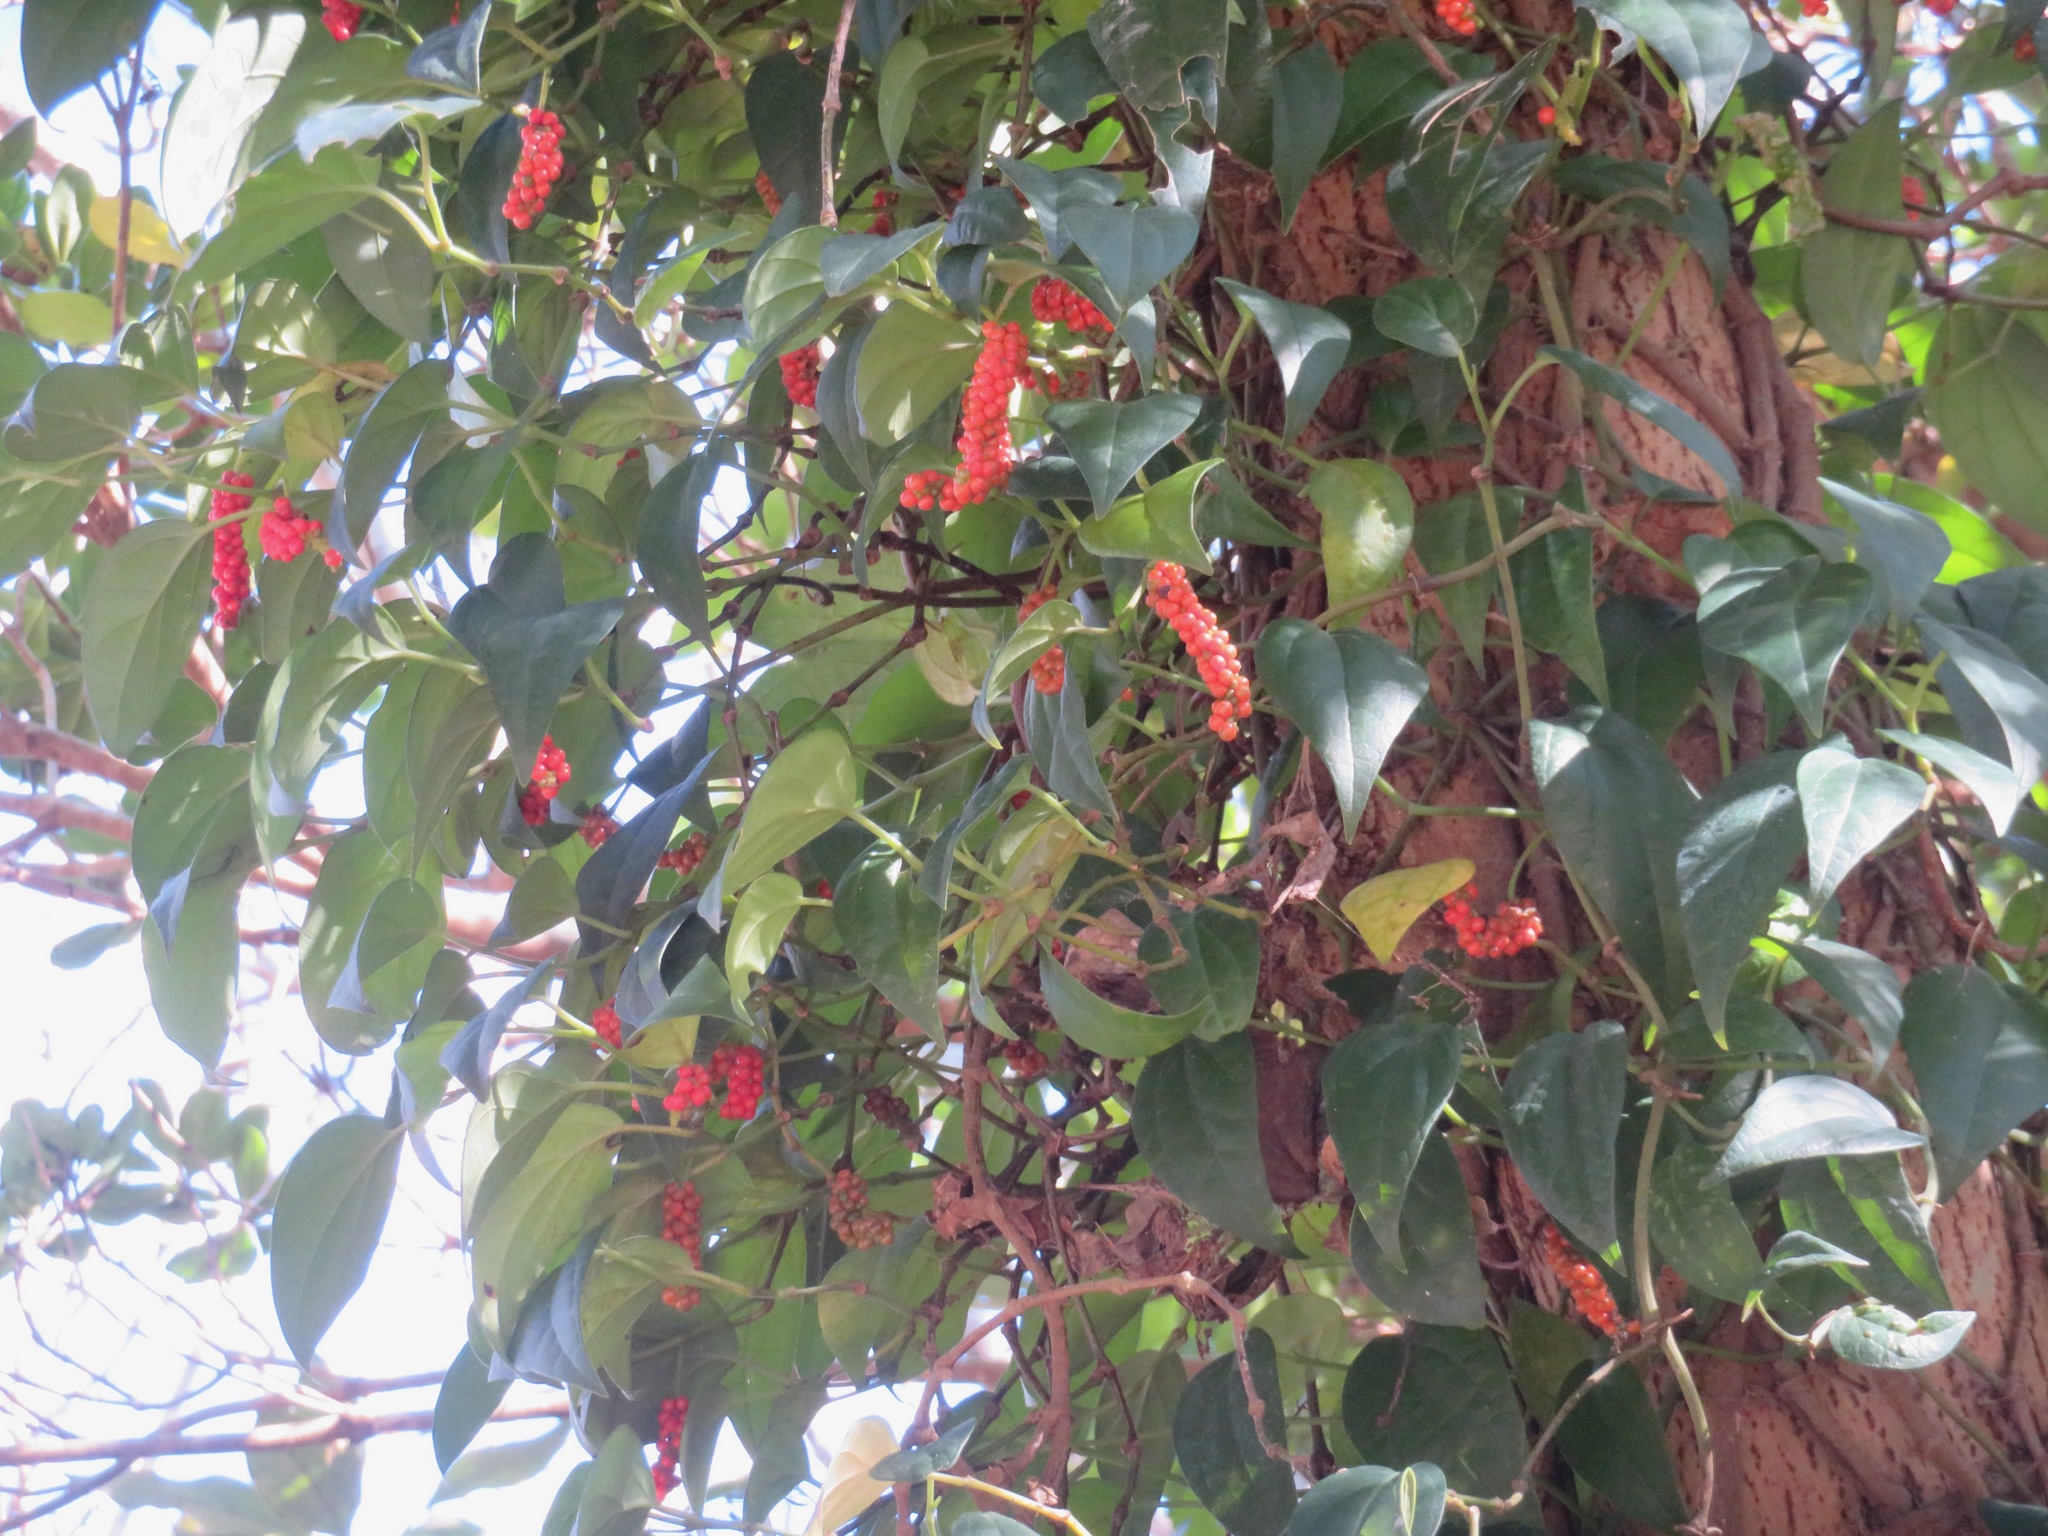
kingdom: Plantae
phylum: Tracheophyta
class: Magnoliopsida
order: Piperales
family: Piperaceae
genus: Piper
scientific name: Piper kadsura
